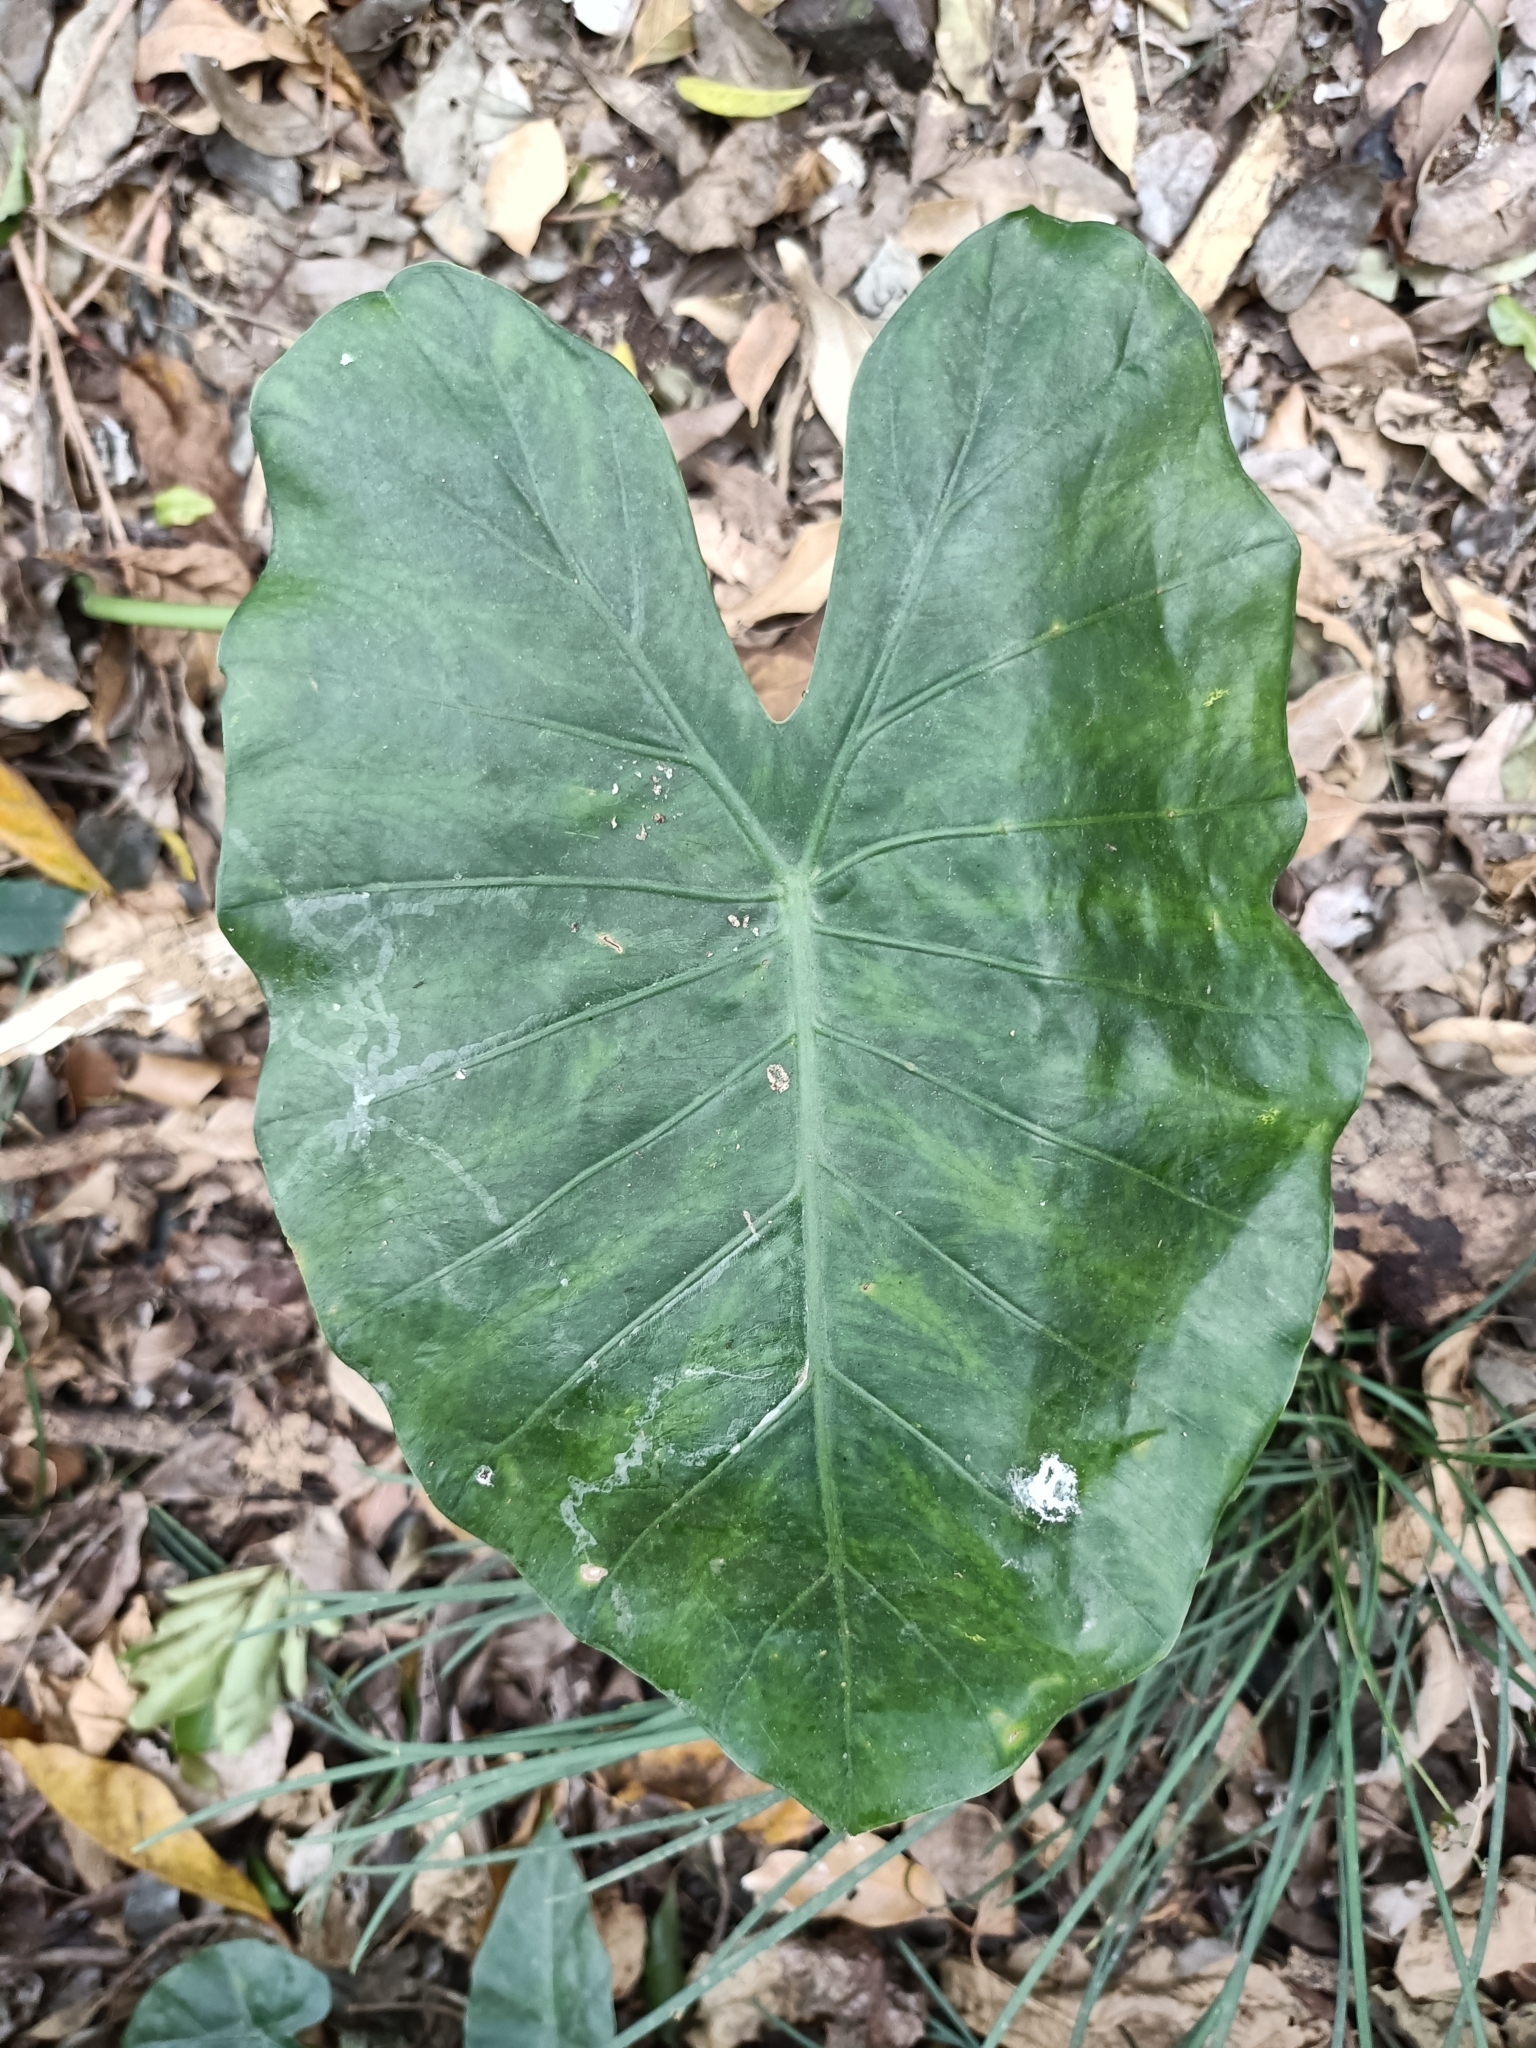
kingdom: Plantae
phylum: Tracheophyta
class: Liliopsida
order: Alismatales
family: Araceae
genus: Alocasia
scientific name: Alocasia odora
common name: Asian taro
